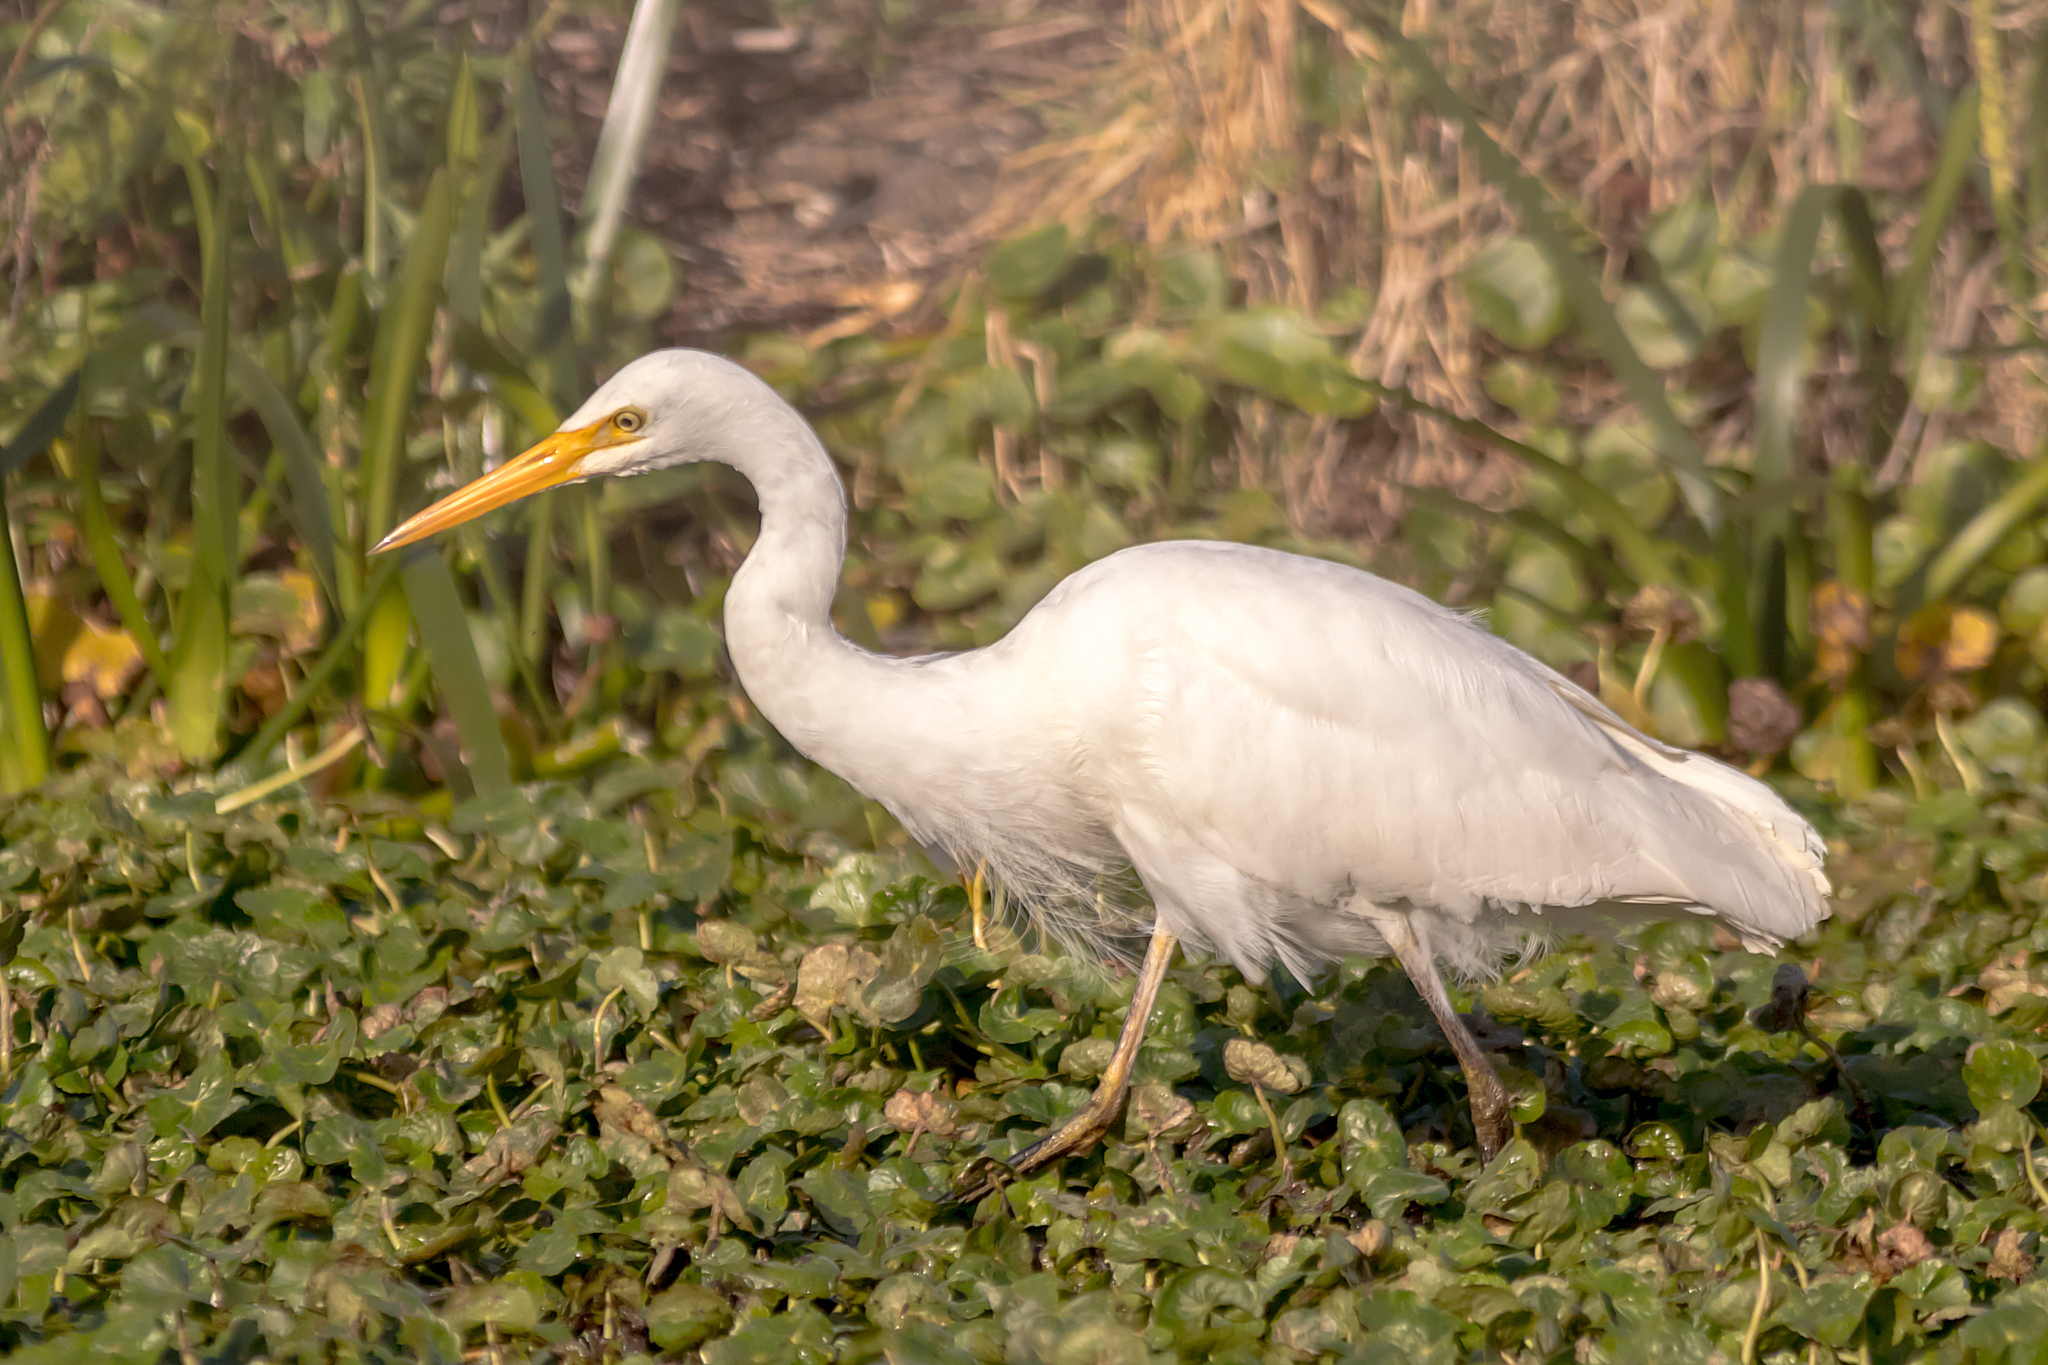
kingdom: Animalia
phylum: Chordata
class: Aves
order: Pelecaniformes
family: Ardeidae
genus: Egretta
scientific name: Egretta intermedia
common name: Intermediate egret
